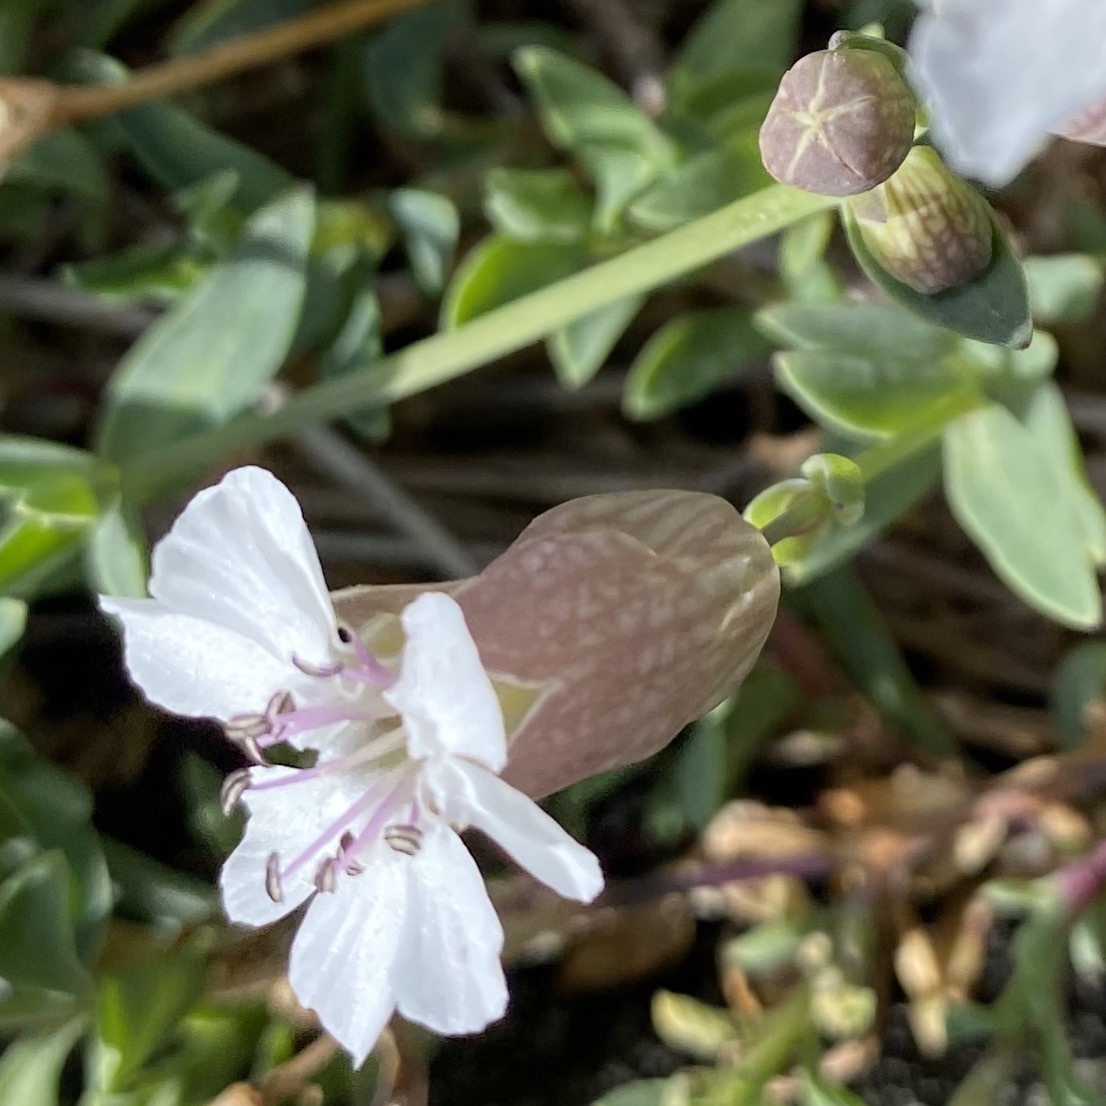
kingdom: Plantae
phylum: Tracheophyta
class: Magnoliopsida
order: Caryophyllales
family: Caryophyllaceae
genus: Silene
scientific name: Silene uniflora
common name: Sea campion
